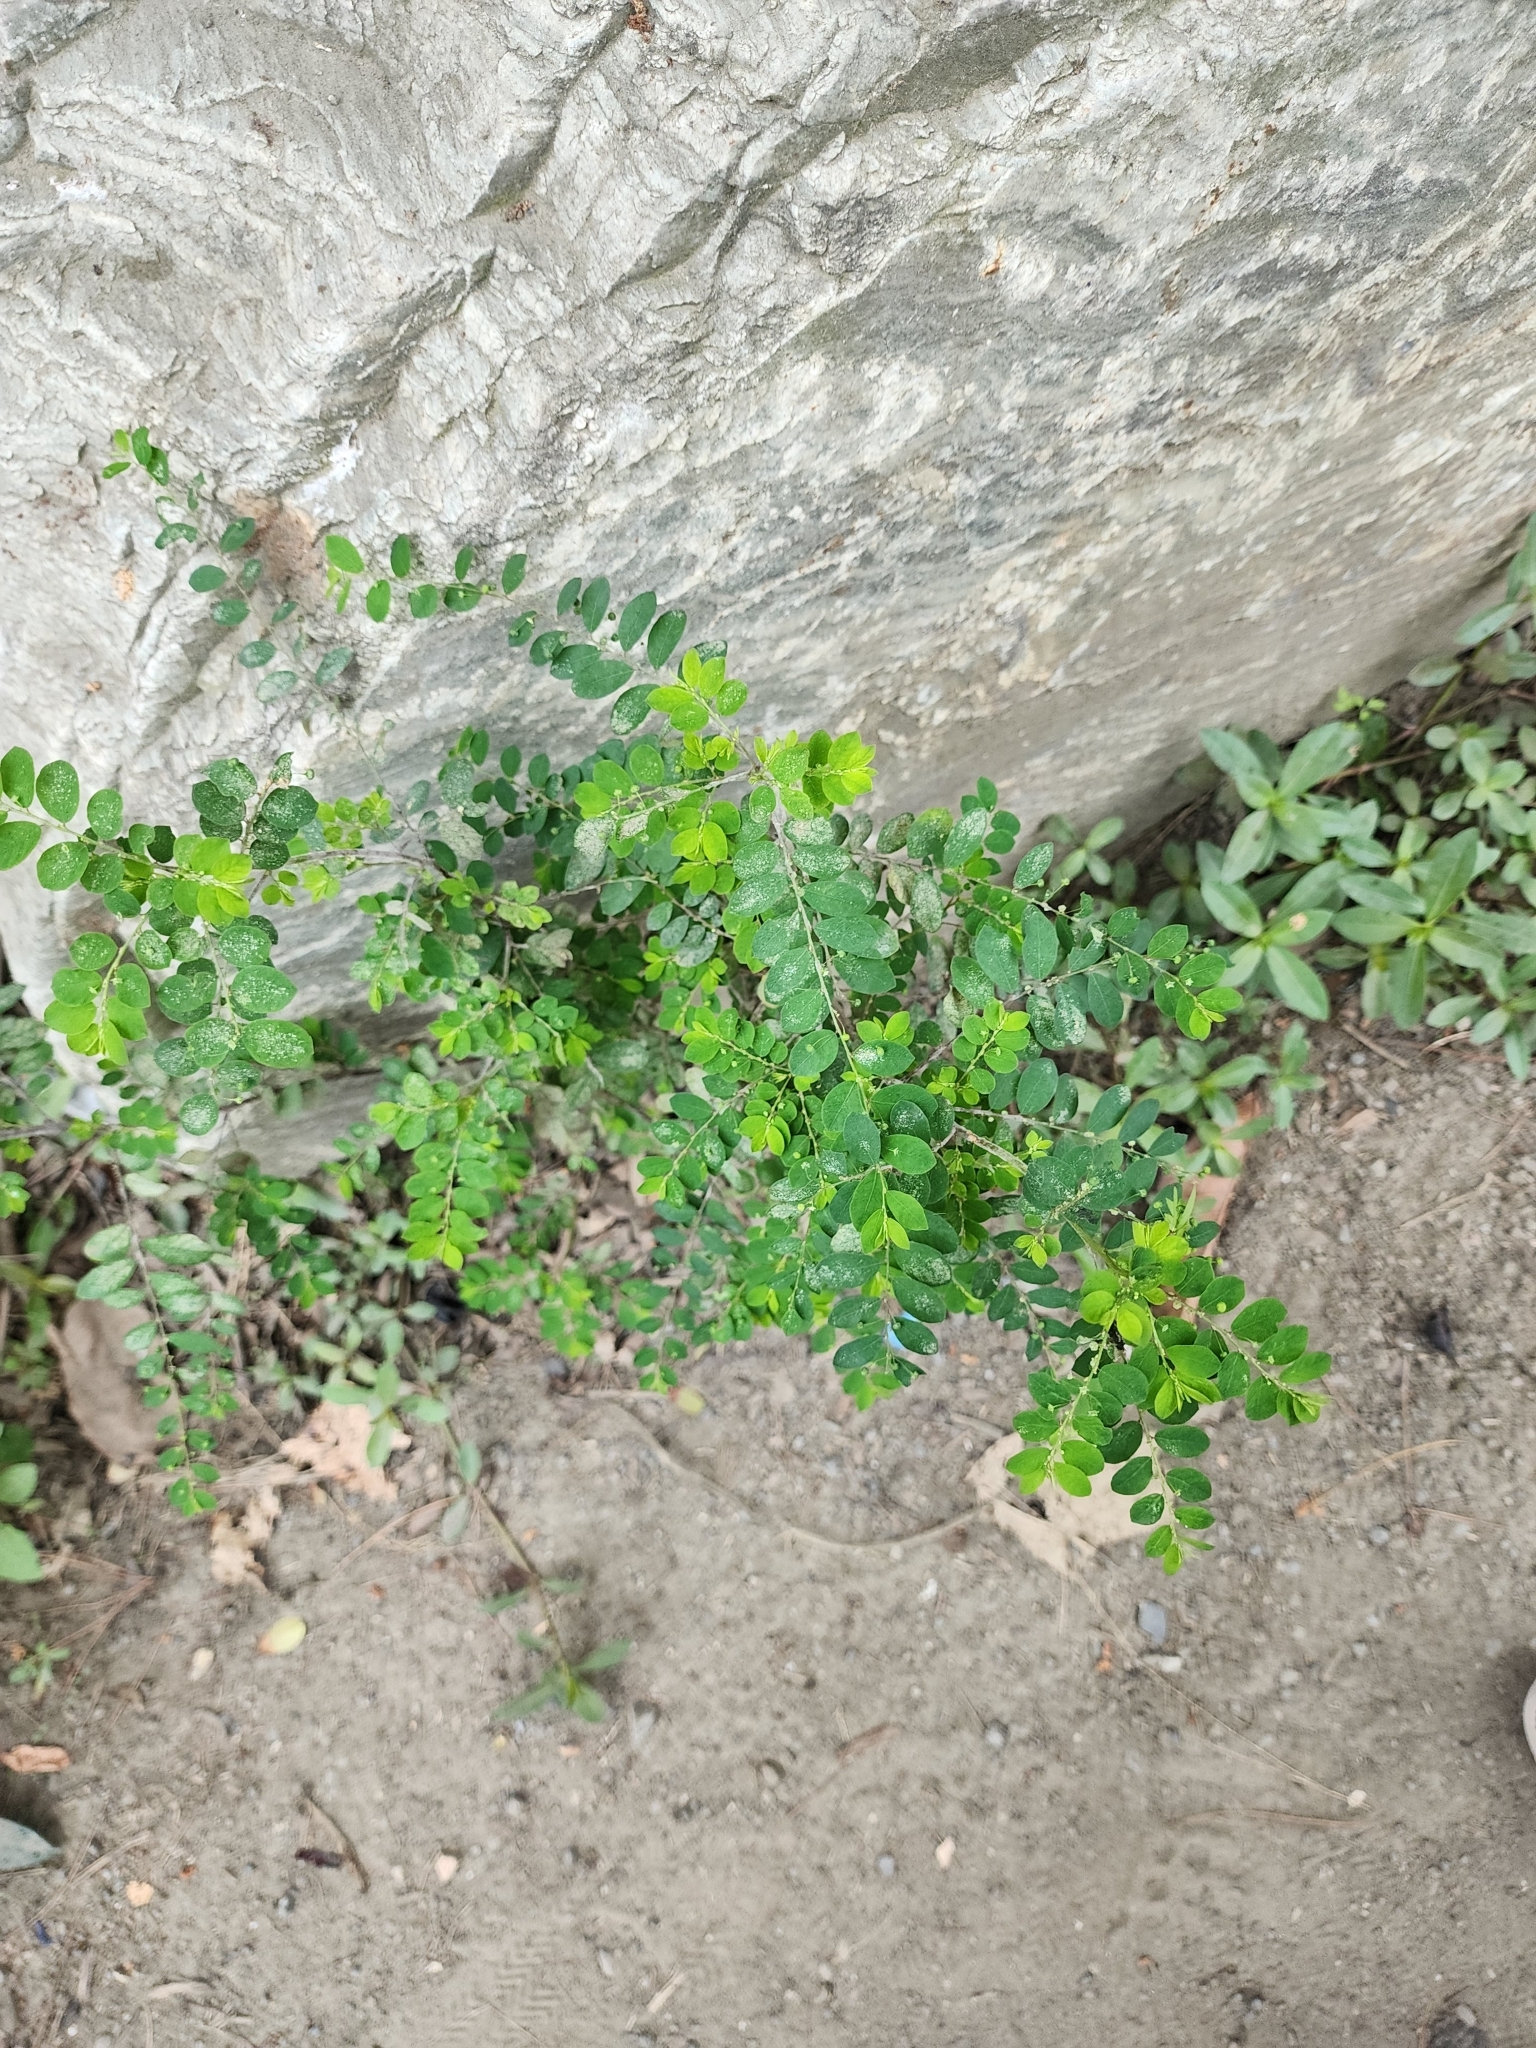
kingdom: Plantae
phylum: Tracheophyta
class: Magnoliopsida
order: Malpighiales
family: Phyllanthaceae
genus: Phyllanthus
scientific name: Phyllanthus tenellus
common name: Mascarene island leaf-flower
